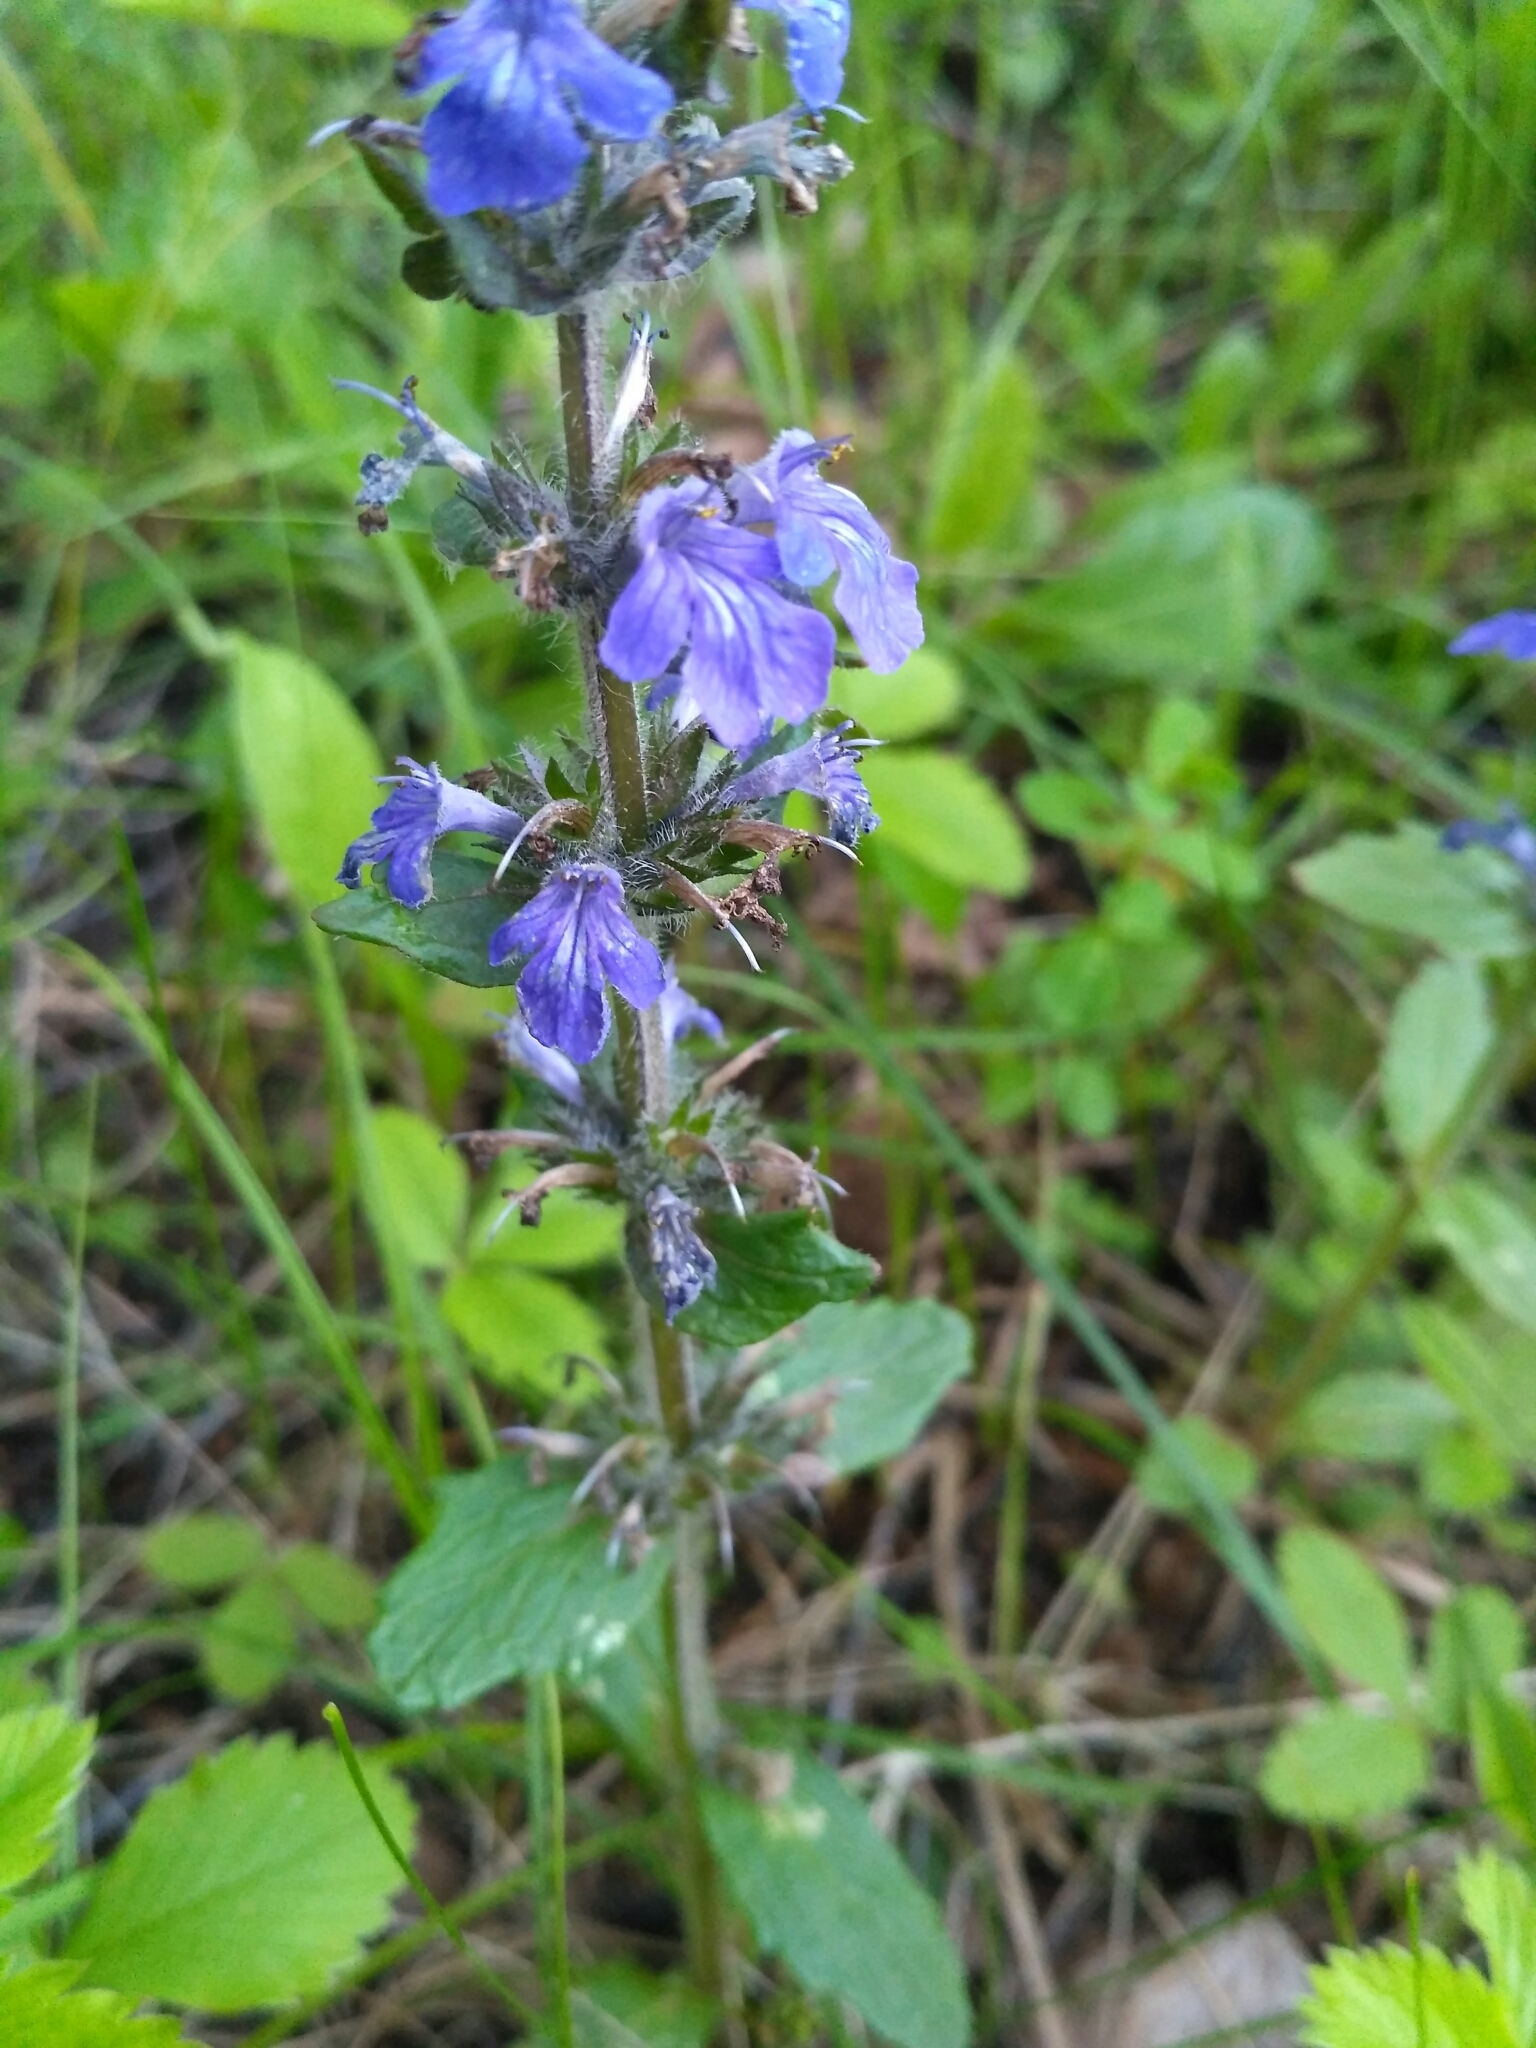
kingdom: Plantae
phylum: Tracheophyta
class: Magnoliopsida
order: Lamiales
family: Lamiaceae
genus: Ajuga
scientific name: Ajuga reptans
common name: Bugle
